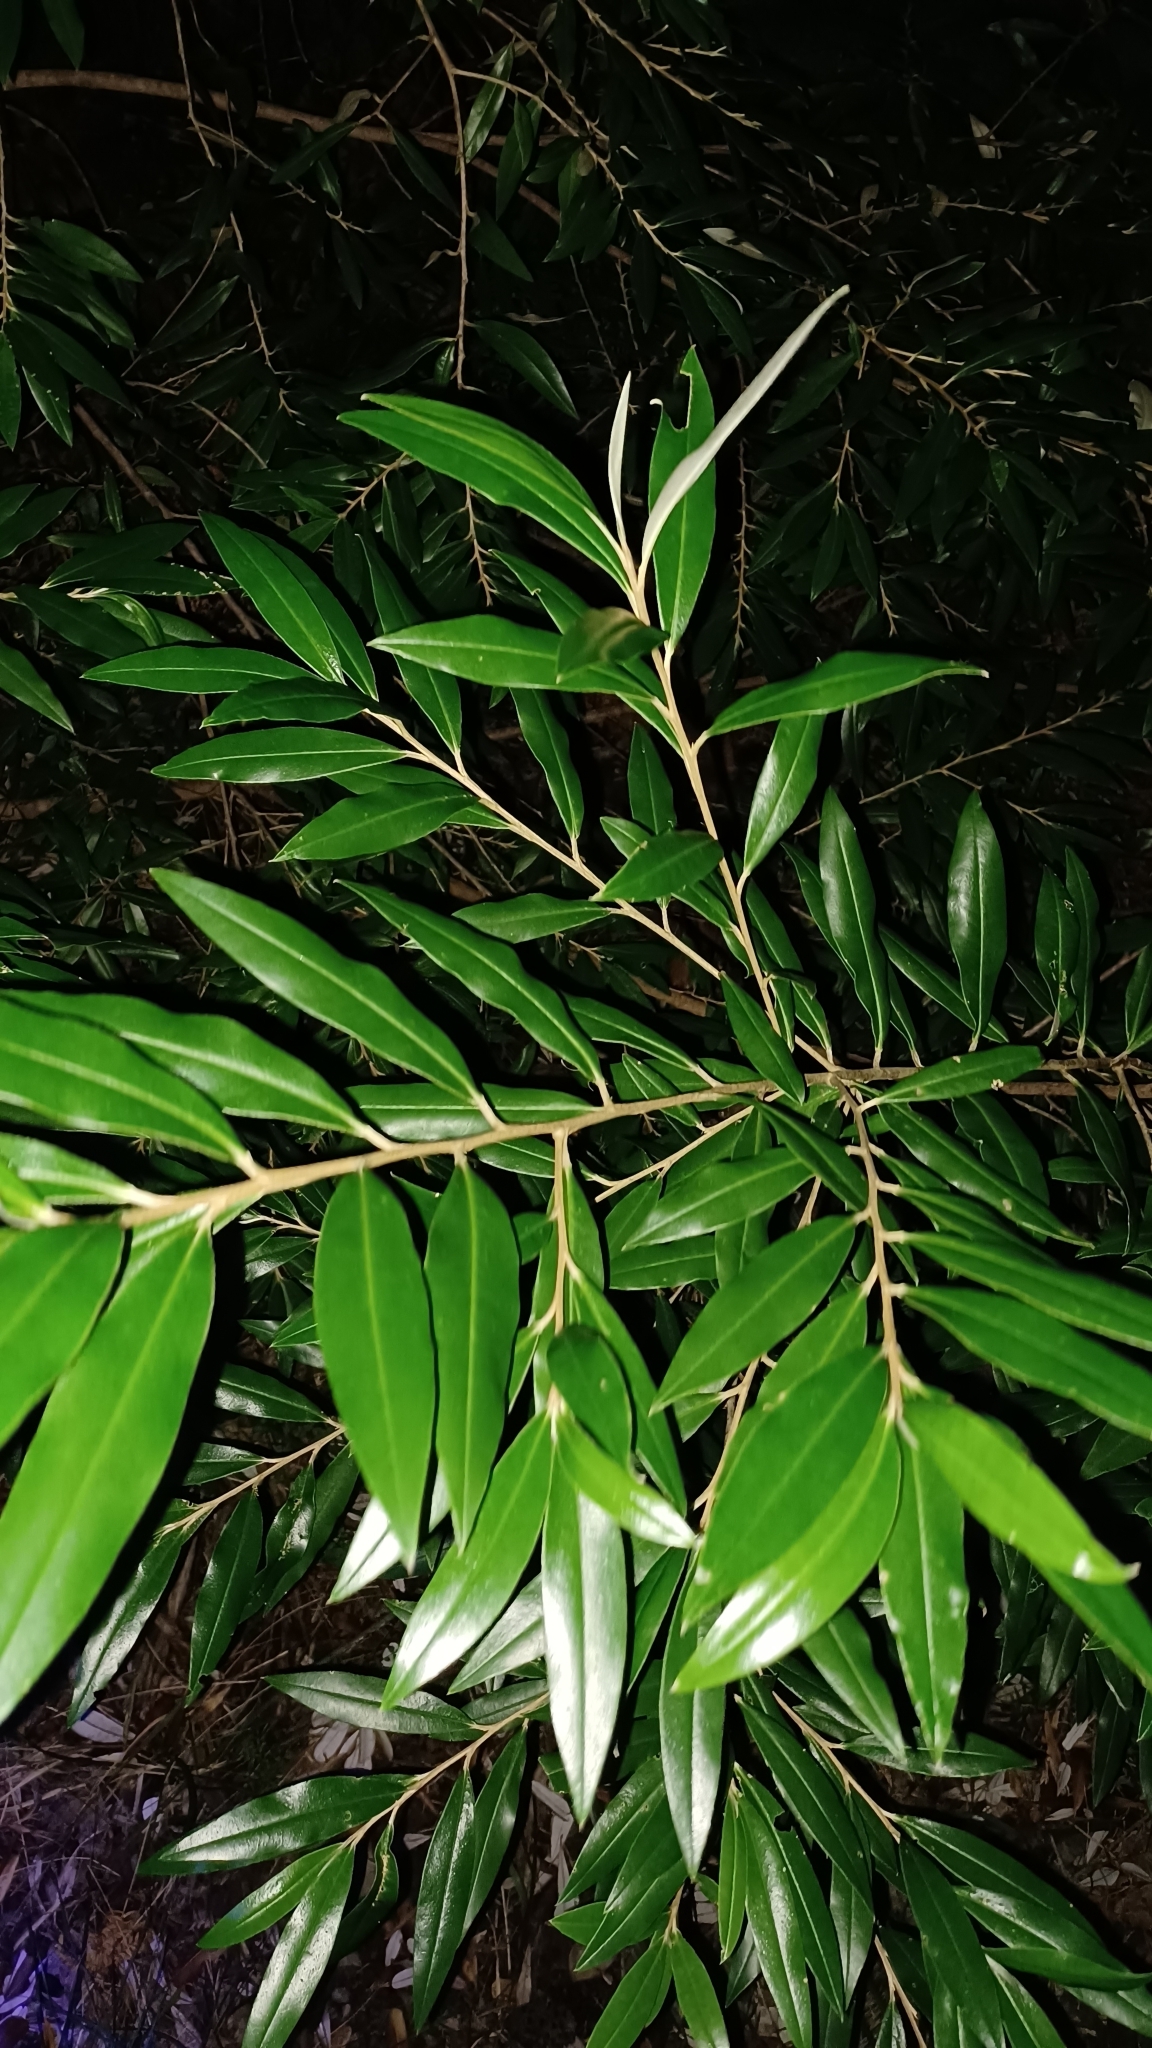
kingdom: Plantae
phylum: Tracheophyta
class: Magnoliopsida
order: Sapindales
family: Rutaceae
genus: Nematolepis
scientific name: Nematolepis squamea
